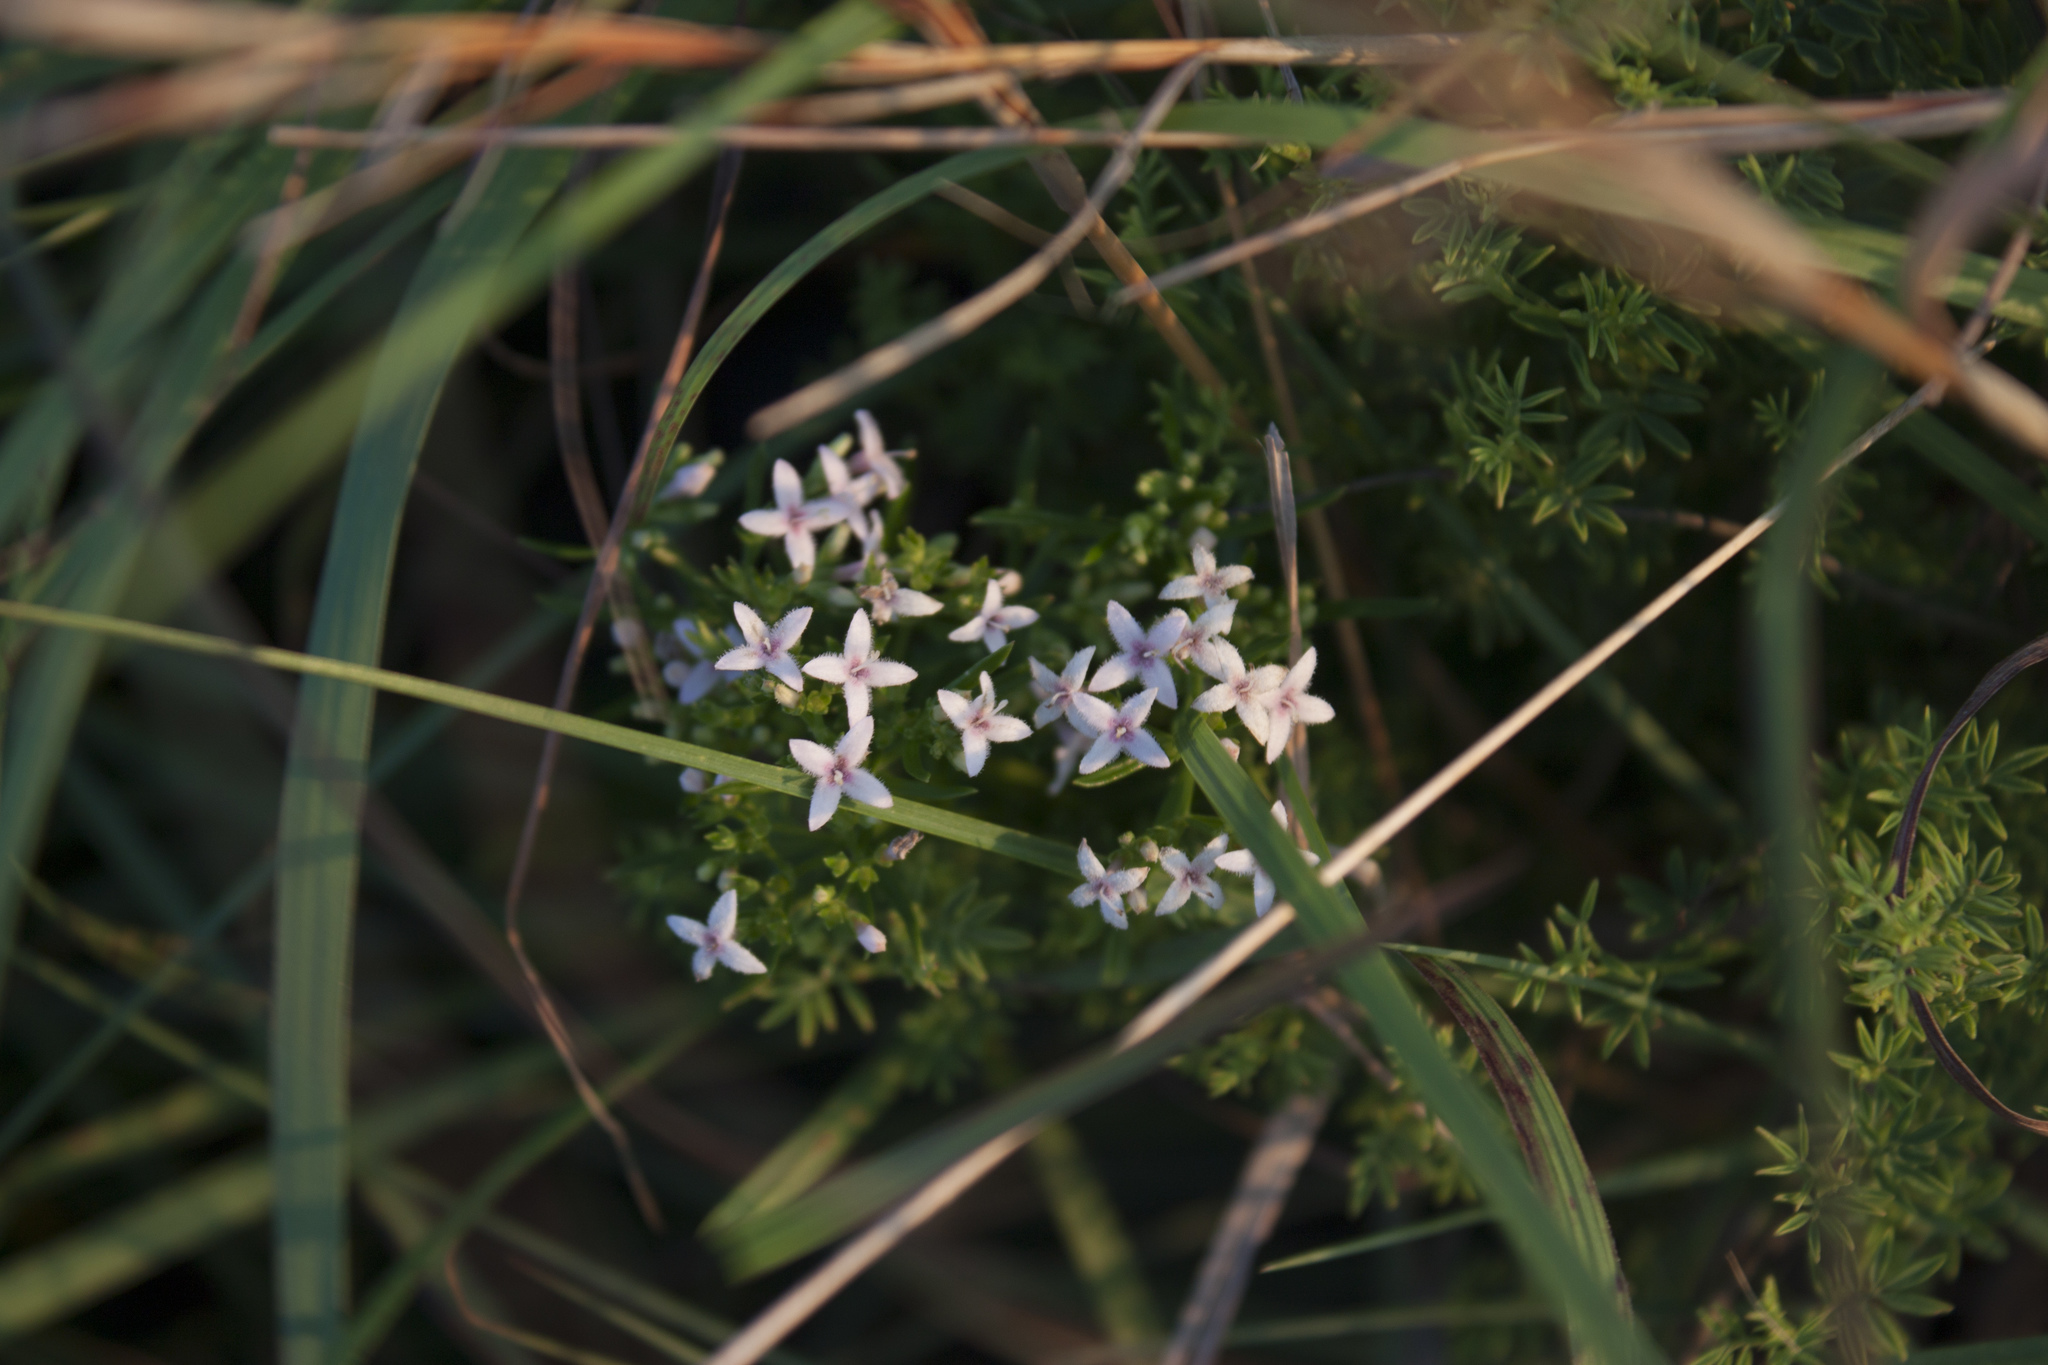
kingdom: Plantae
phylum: Tracheophyta
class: Magnoliopsida
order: Gentianales
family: Rubiaceae
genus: Stenaria
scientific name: Stenaria nigricans
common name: Diamondflowers
